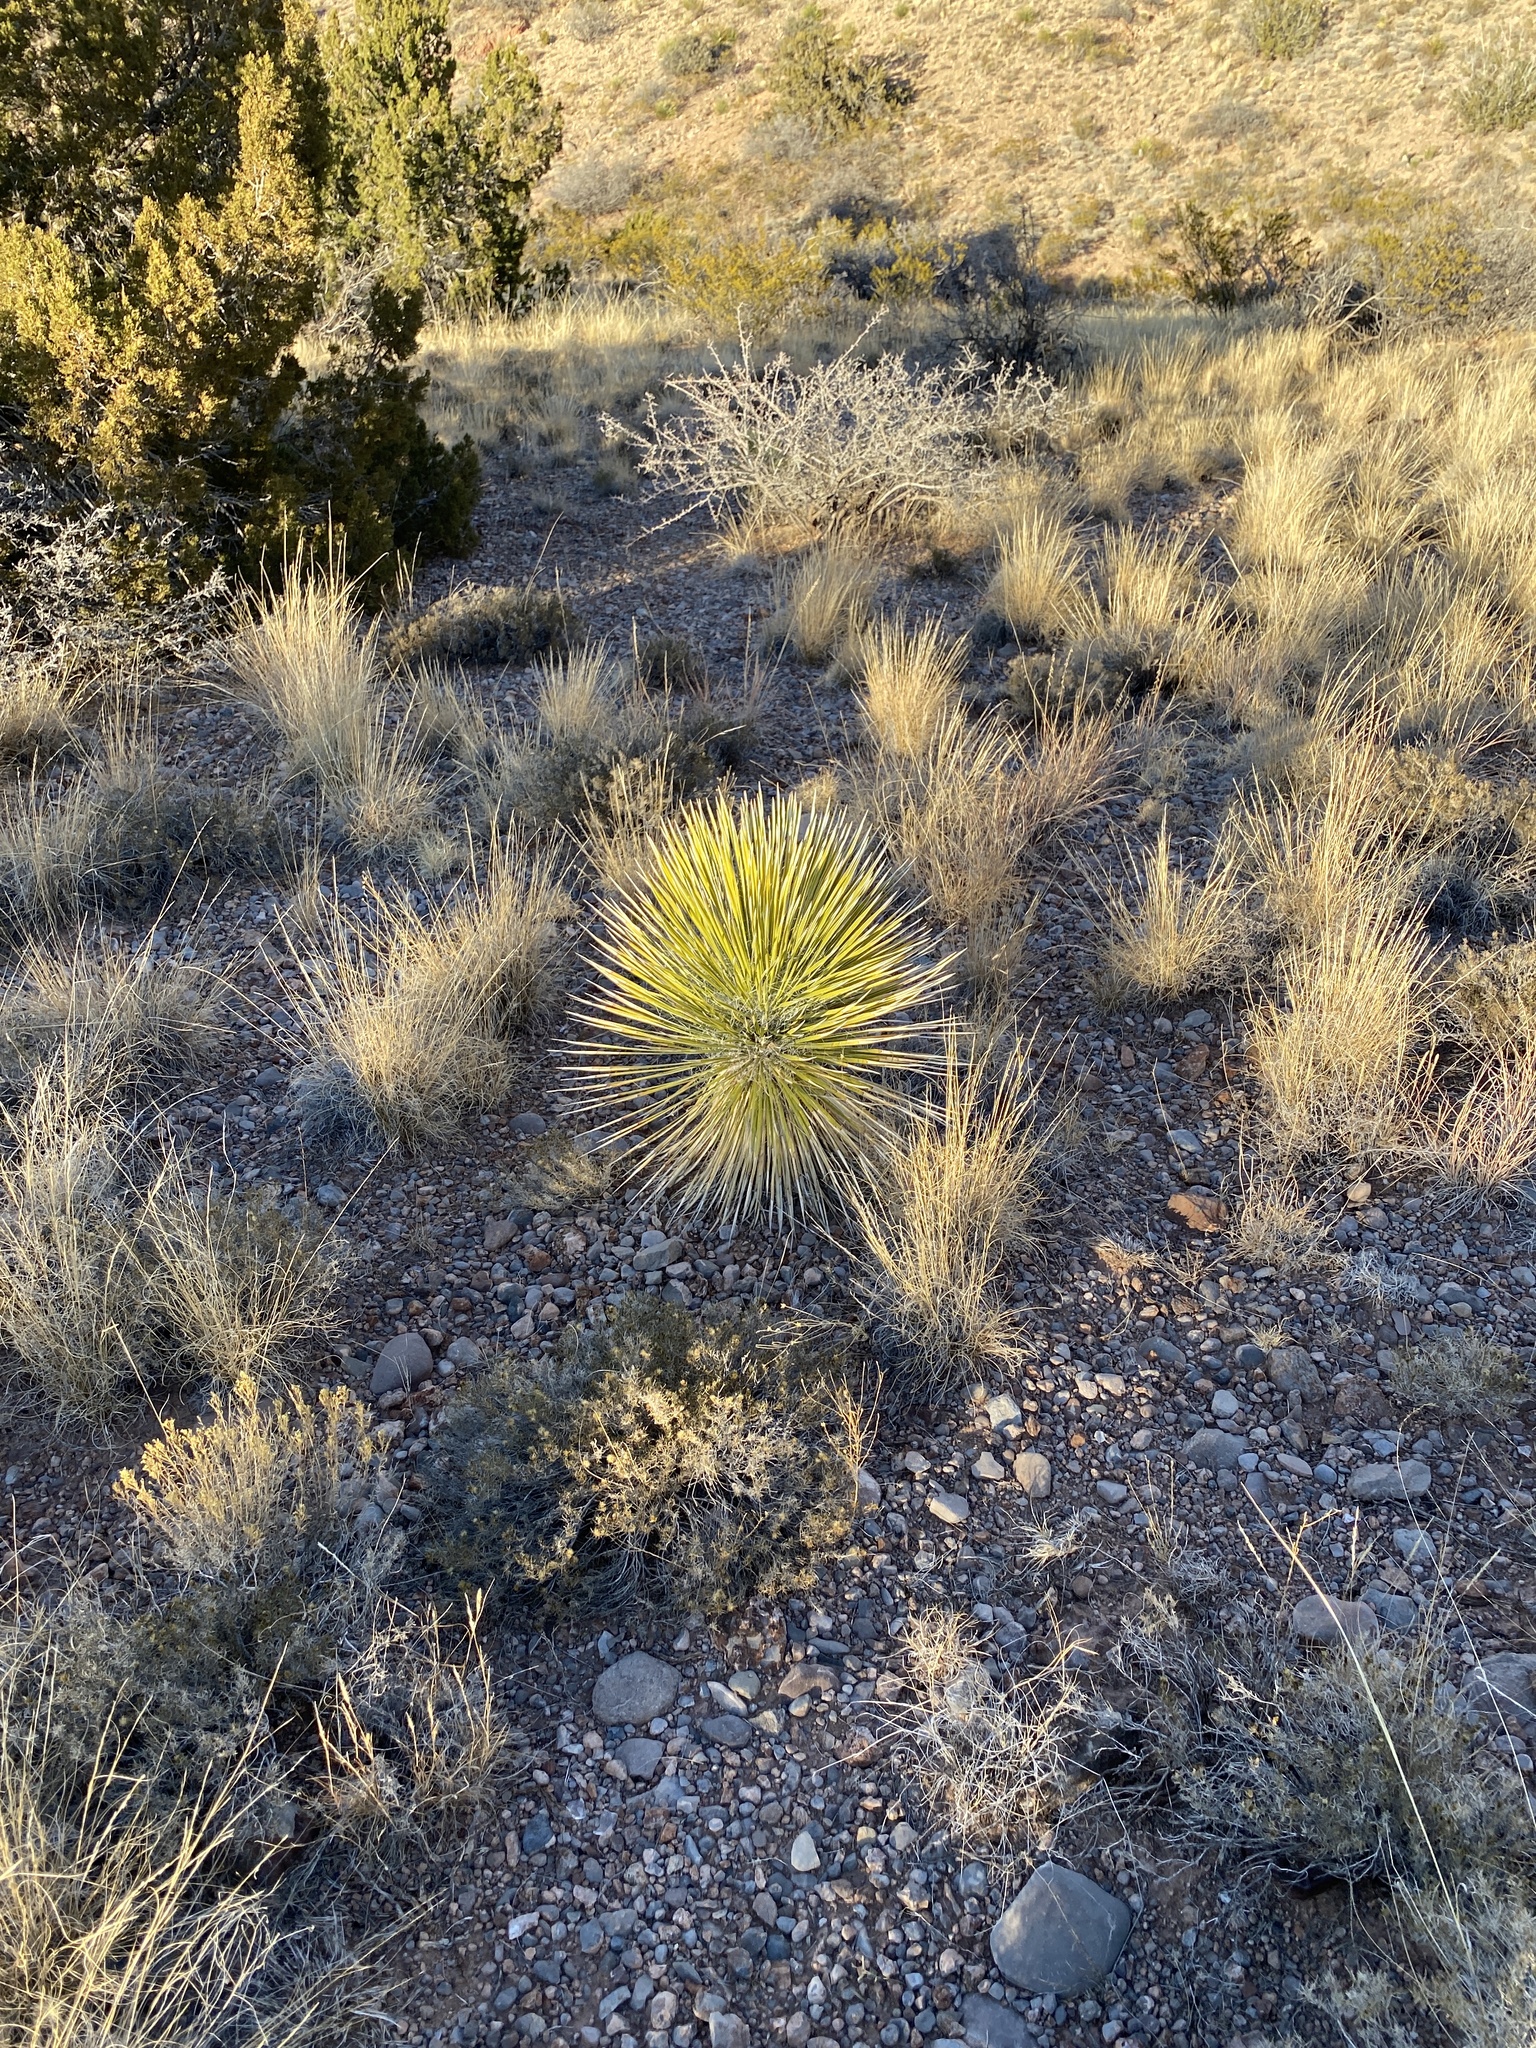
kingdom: Plantae
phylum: Tracheophyta
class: Liliopsida
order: Asparagales
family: Asparagaceae
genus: Yucca
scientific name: Yucca elata
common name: Palmella
